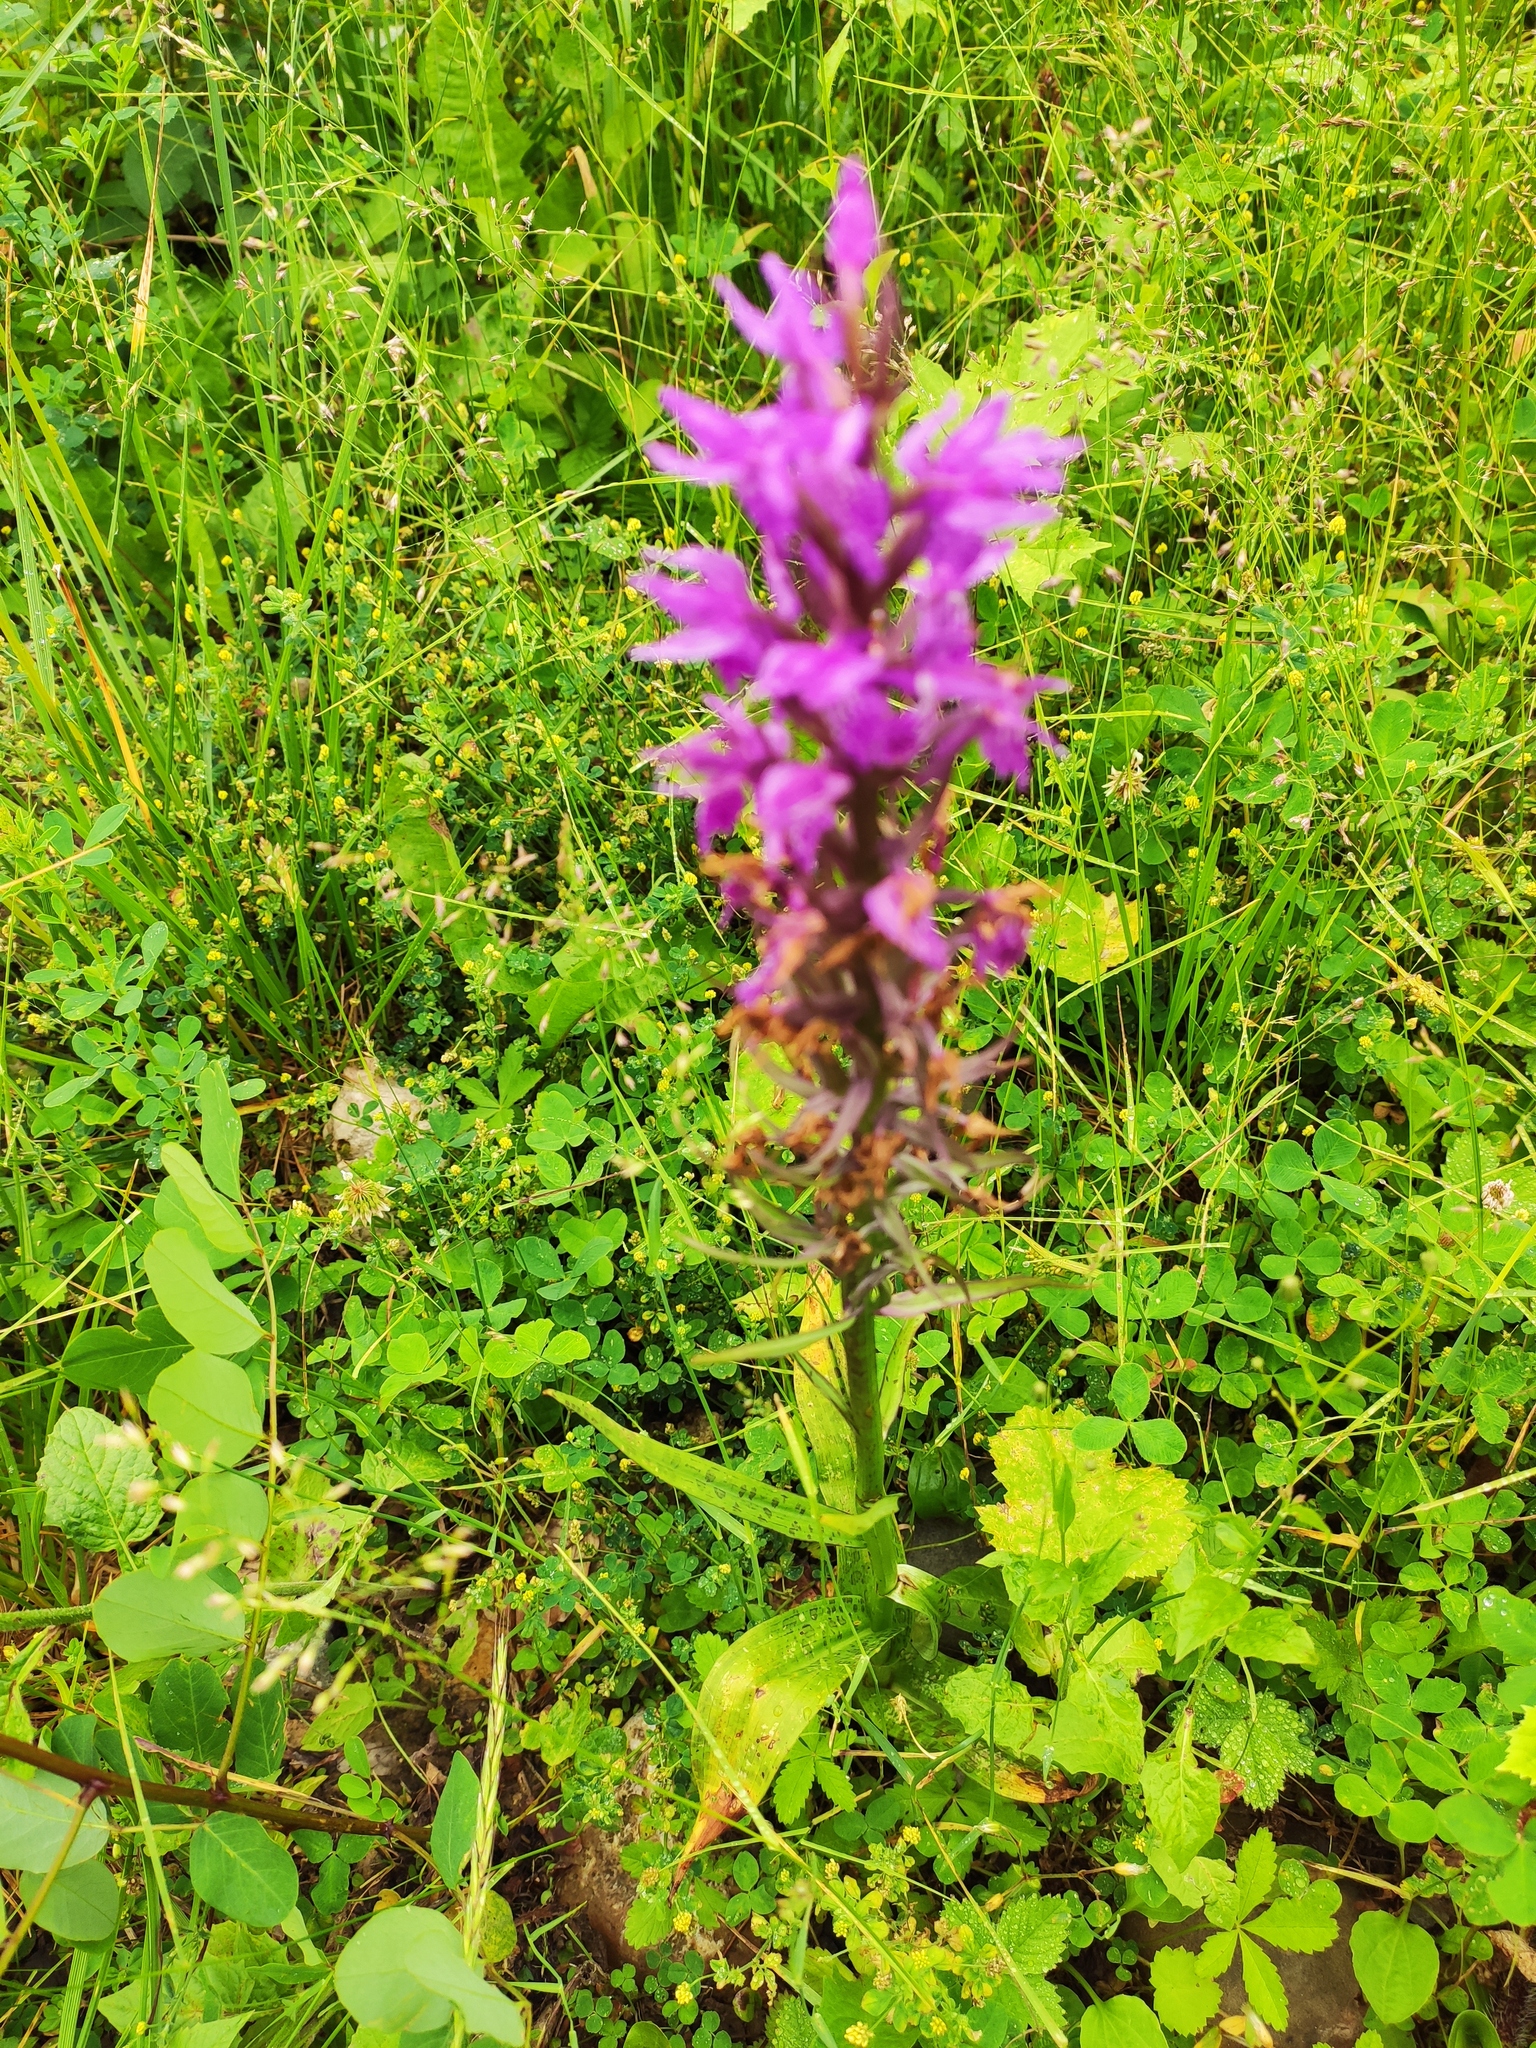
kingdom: Plantae
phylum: Tracheophyta
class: Liliopsida
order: Asparagales
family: Orchidaceae
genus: Dactylorhiza
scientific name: Dactylorhiza urvilleana
